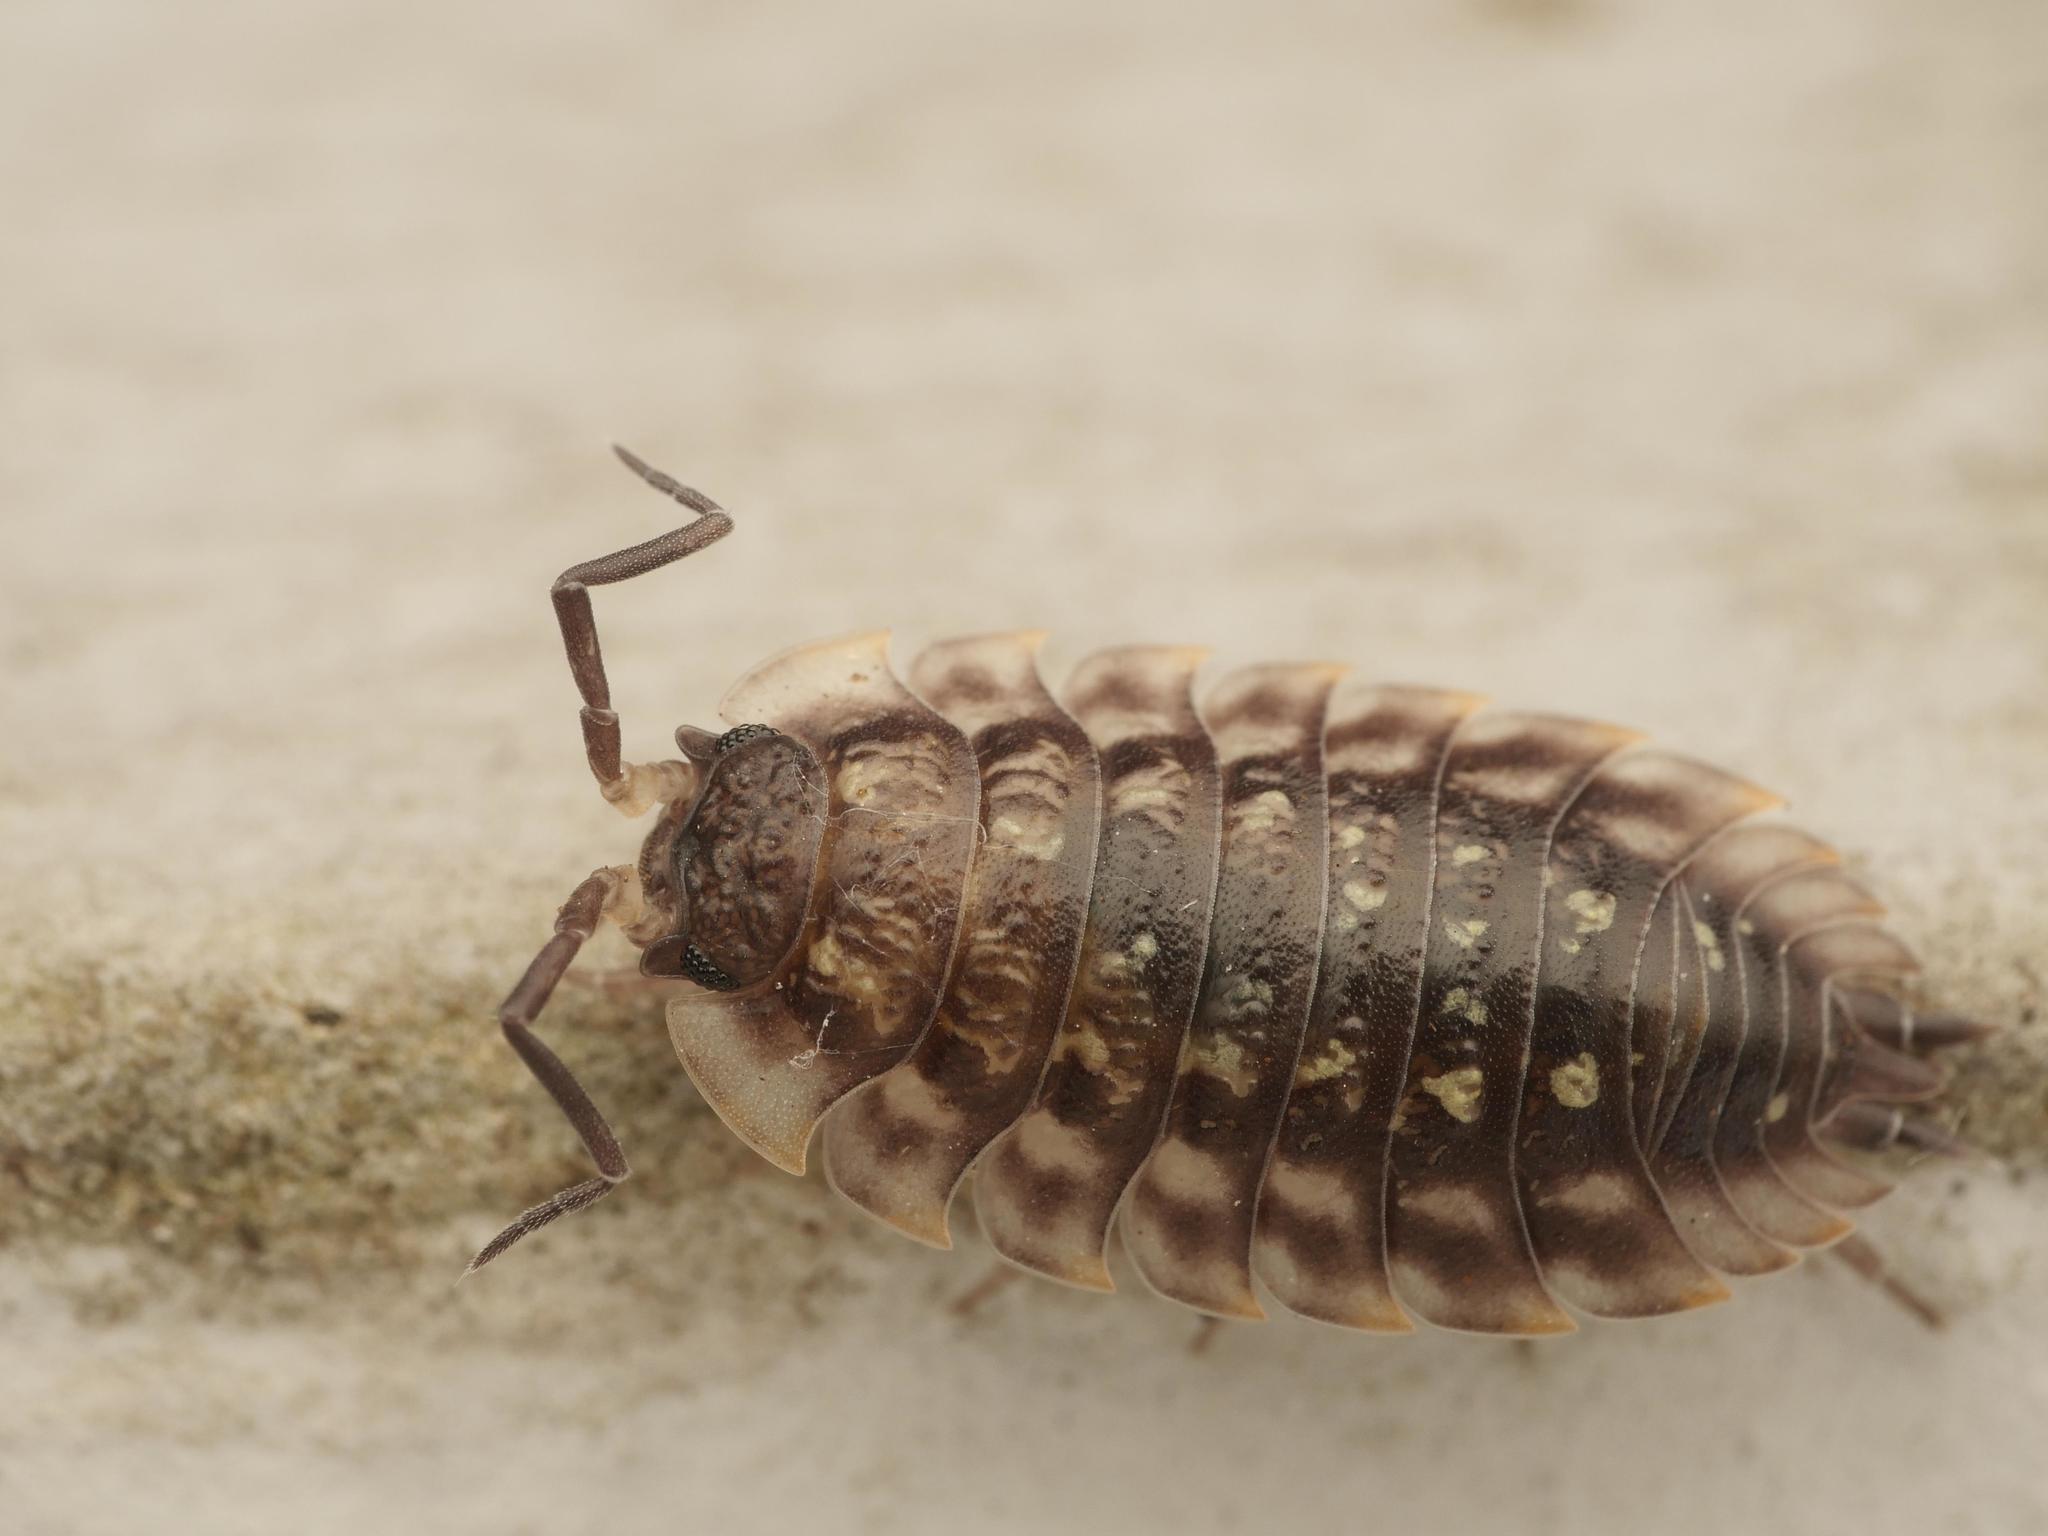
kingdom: Animalia
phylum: Arthropoda
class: Malacostraca
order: Isopoda
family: Oniscidae
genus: Oniscus
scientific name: Oniscus asellus
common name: Common shiny woodlouse
